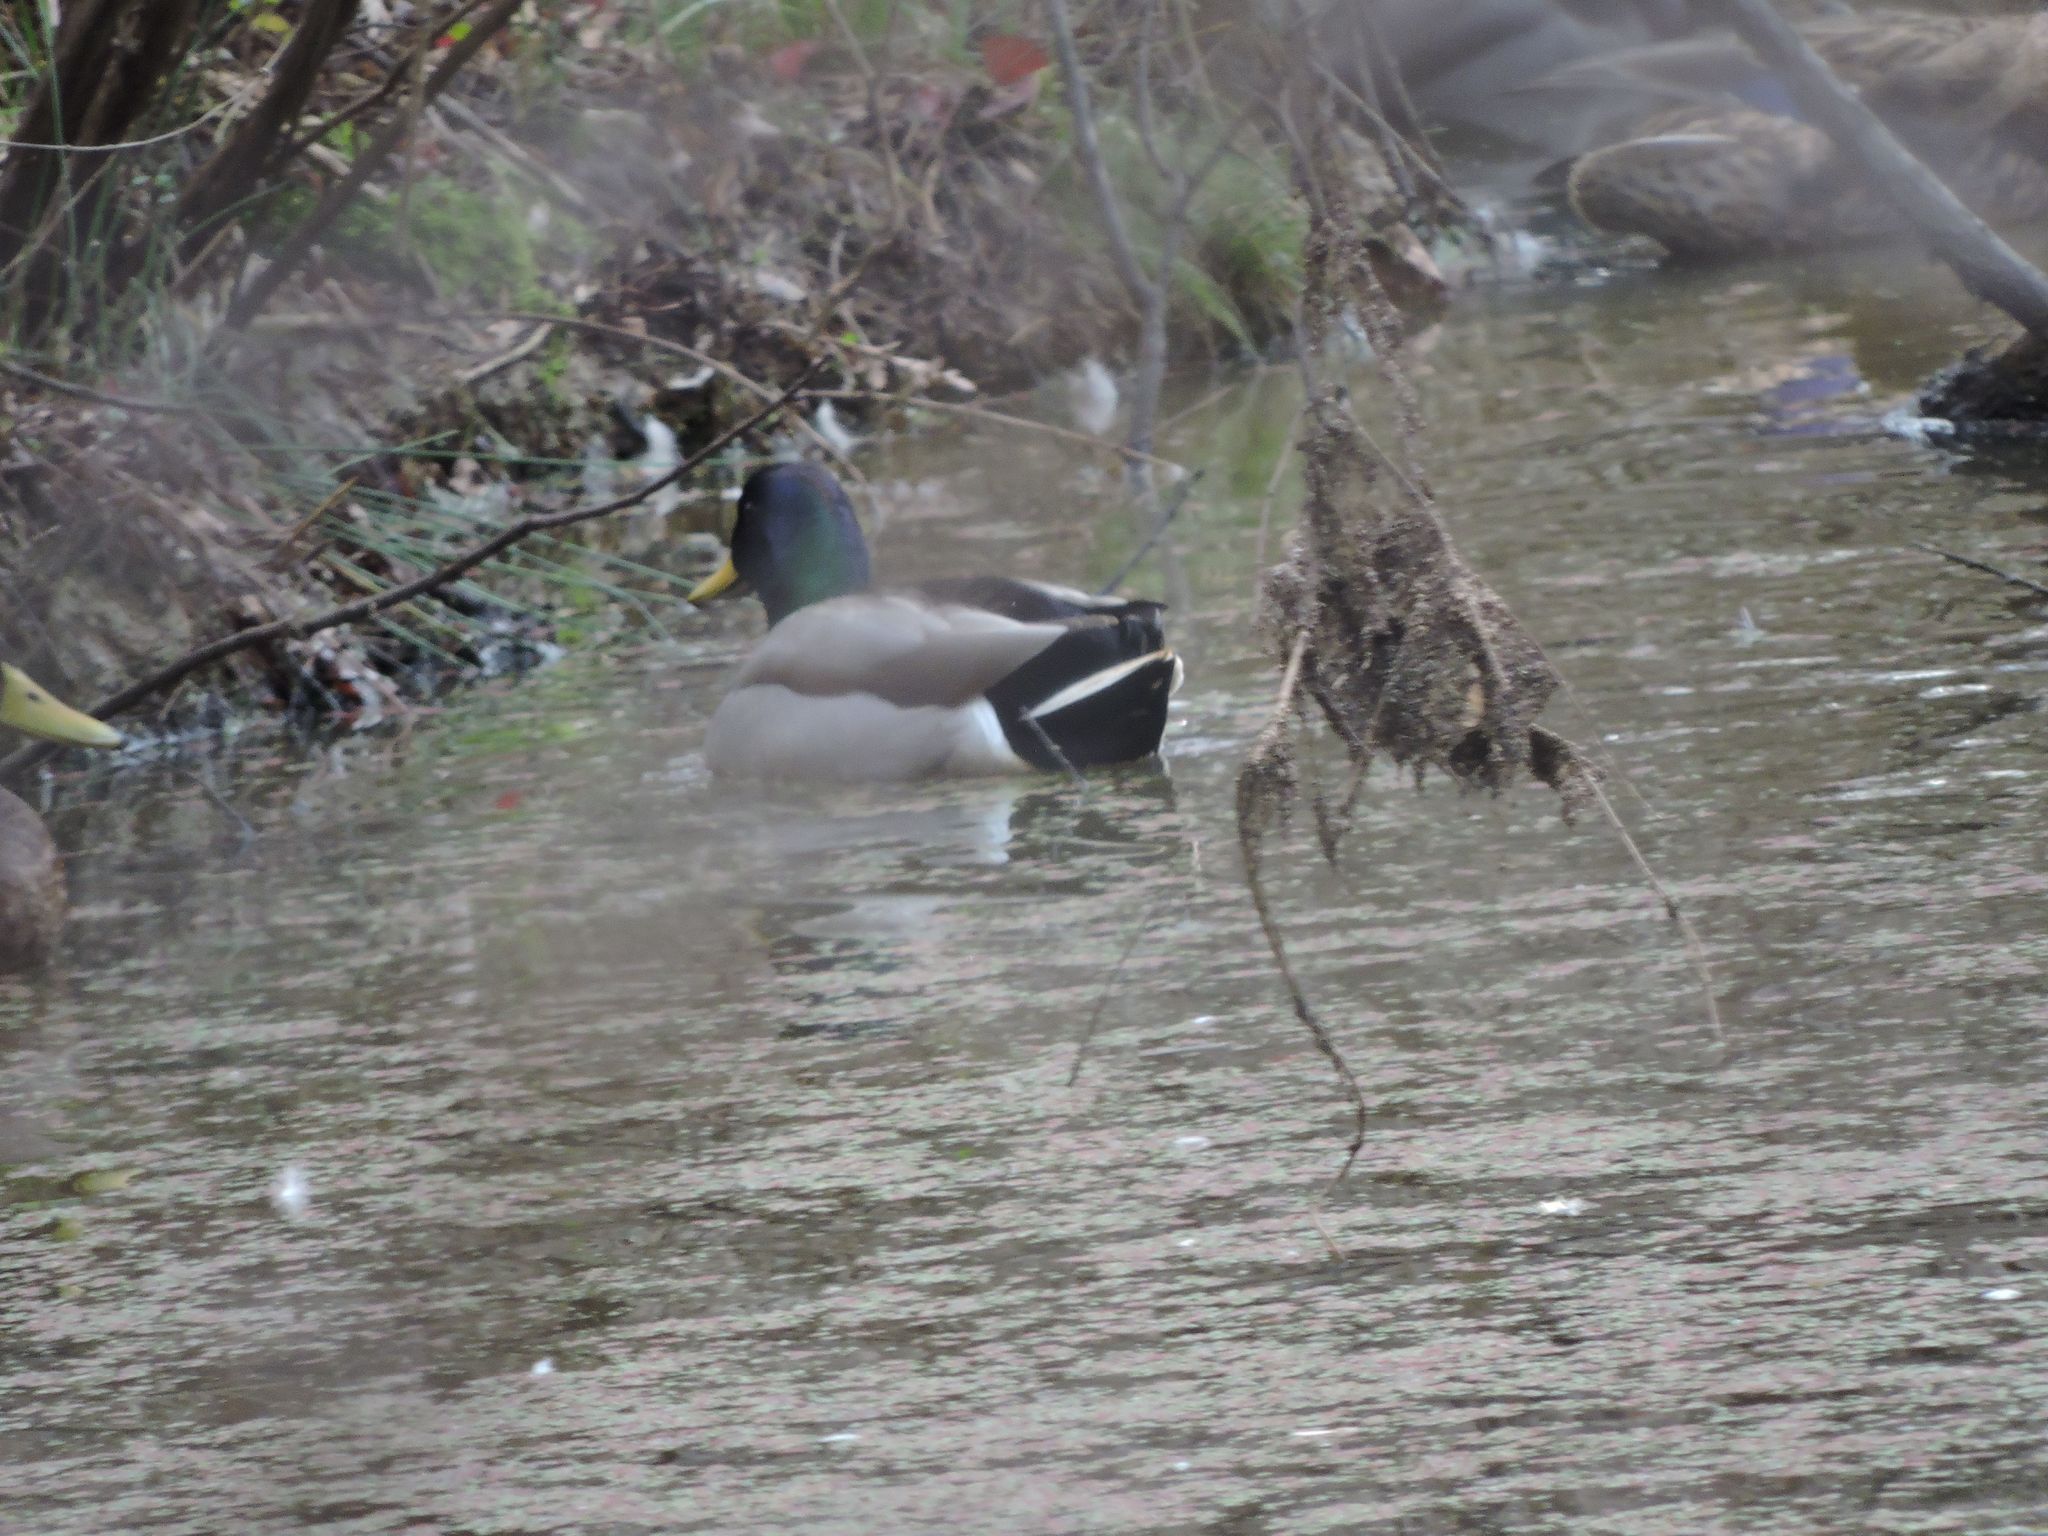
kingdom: Animalia
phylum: Chordata
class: Aves
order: Anseriformes
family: Anatidae
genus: Anas
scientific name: Anas platyrhynchos
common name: Mallard
